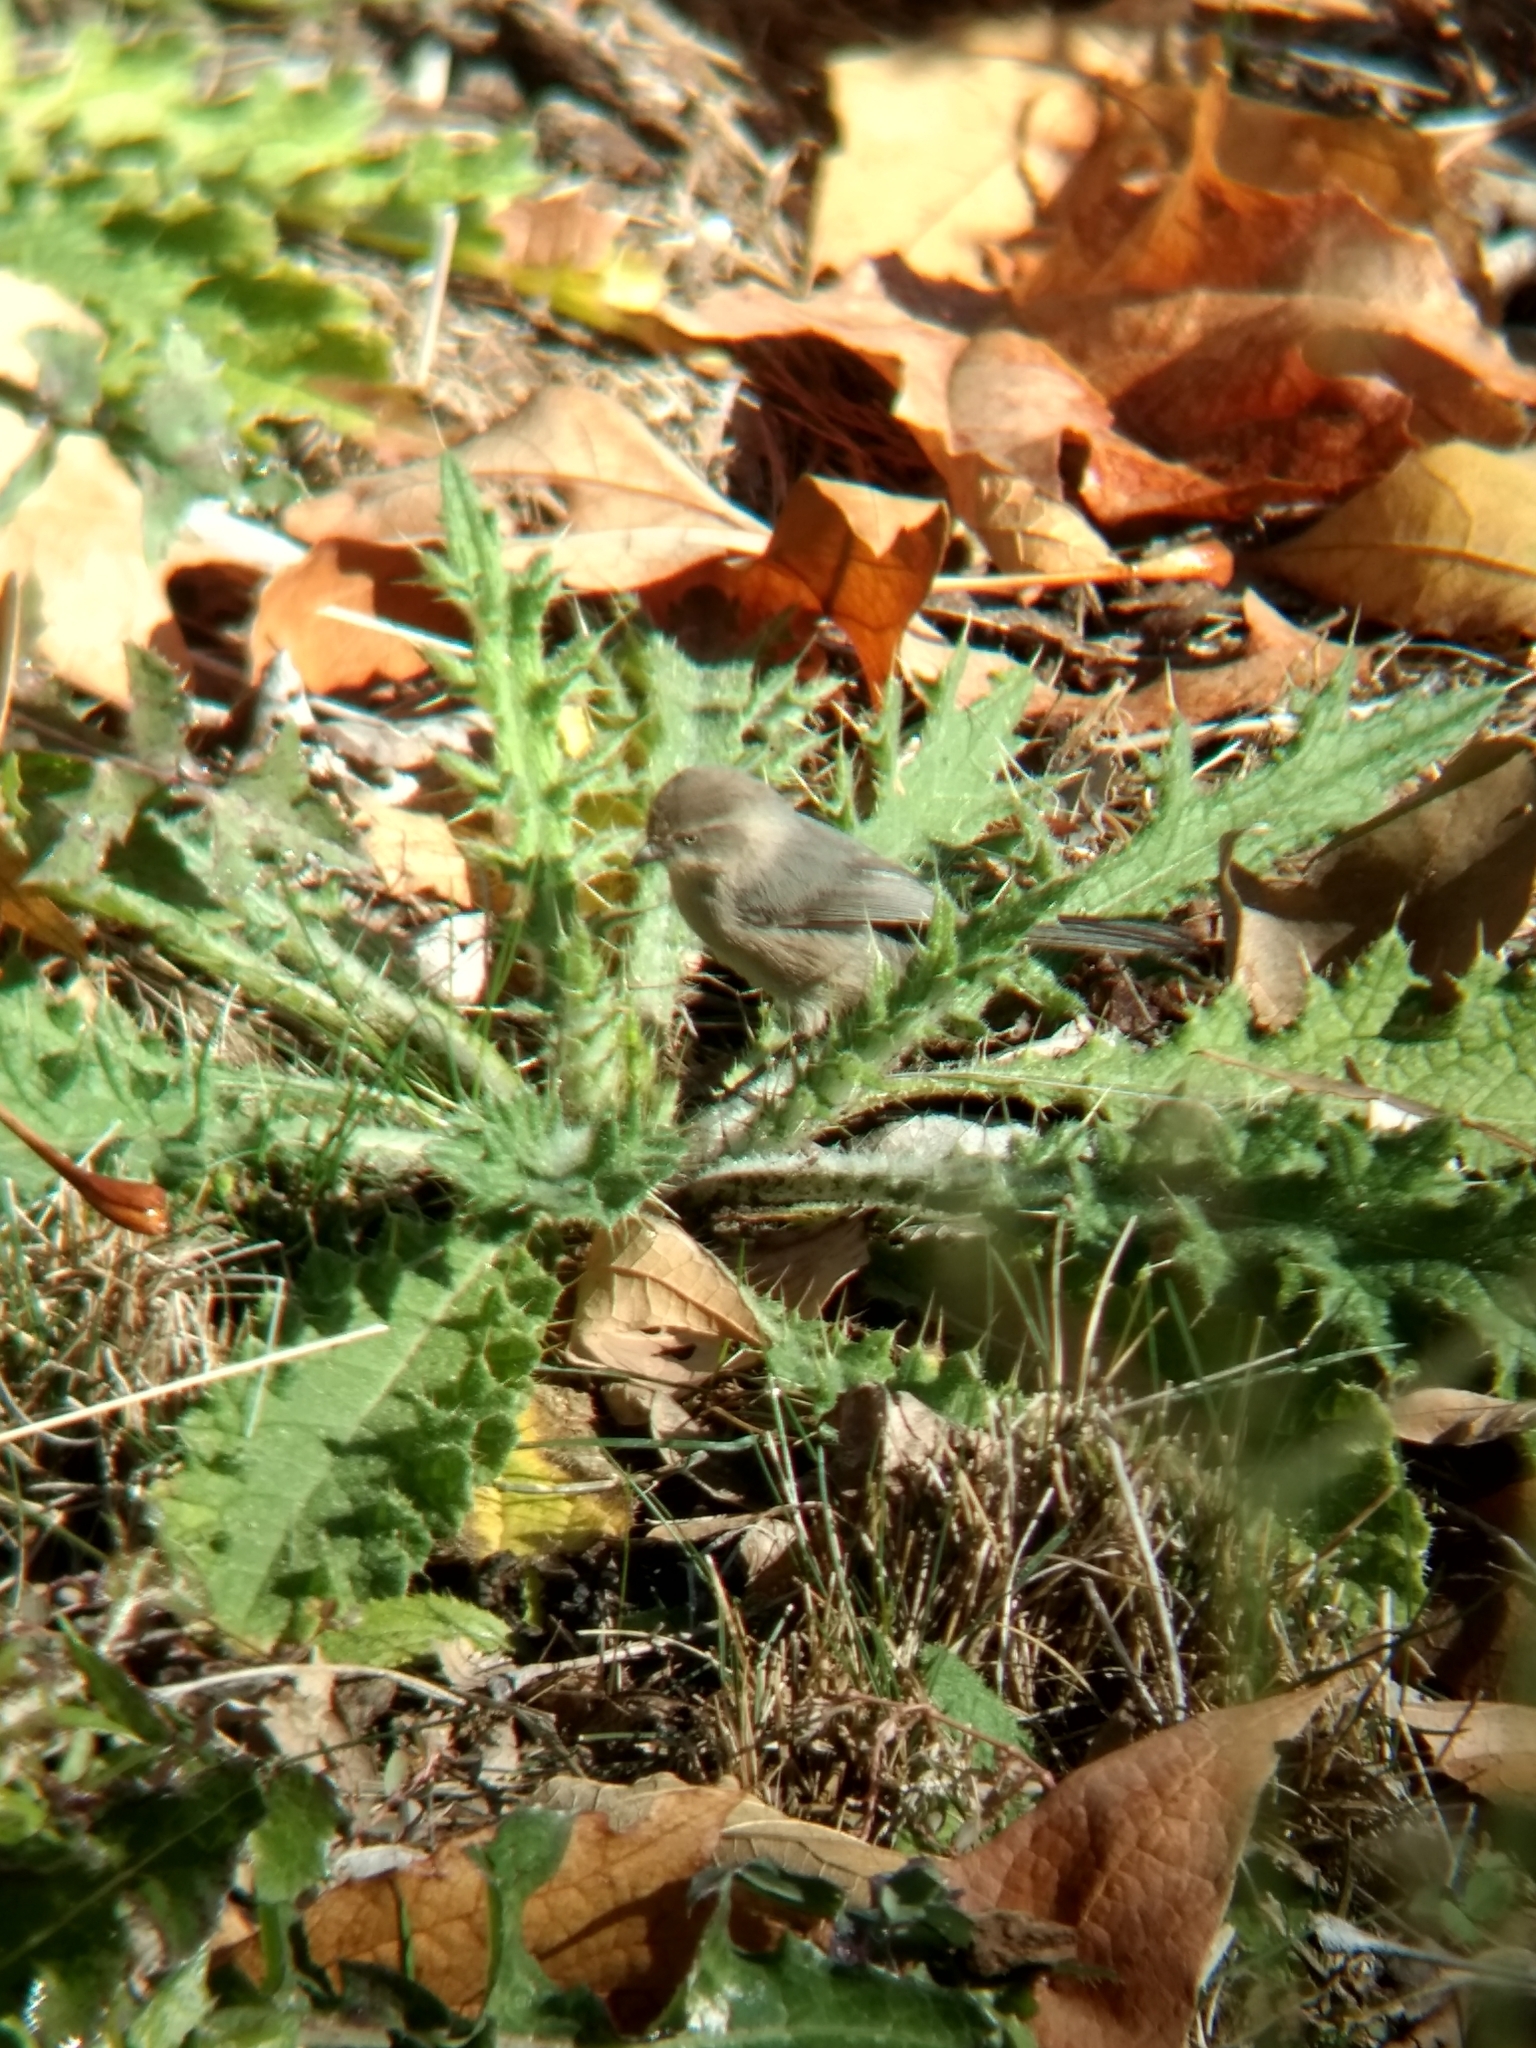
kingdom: Animalia
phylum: Chordata
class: Aves
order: Passeriformes
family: Aegithalidae
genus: Psaltriparus
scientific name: Psaltriparus minimus
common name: American bushtit
